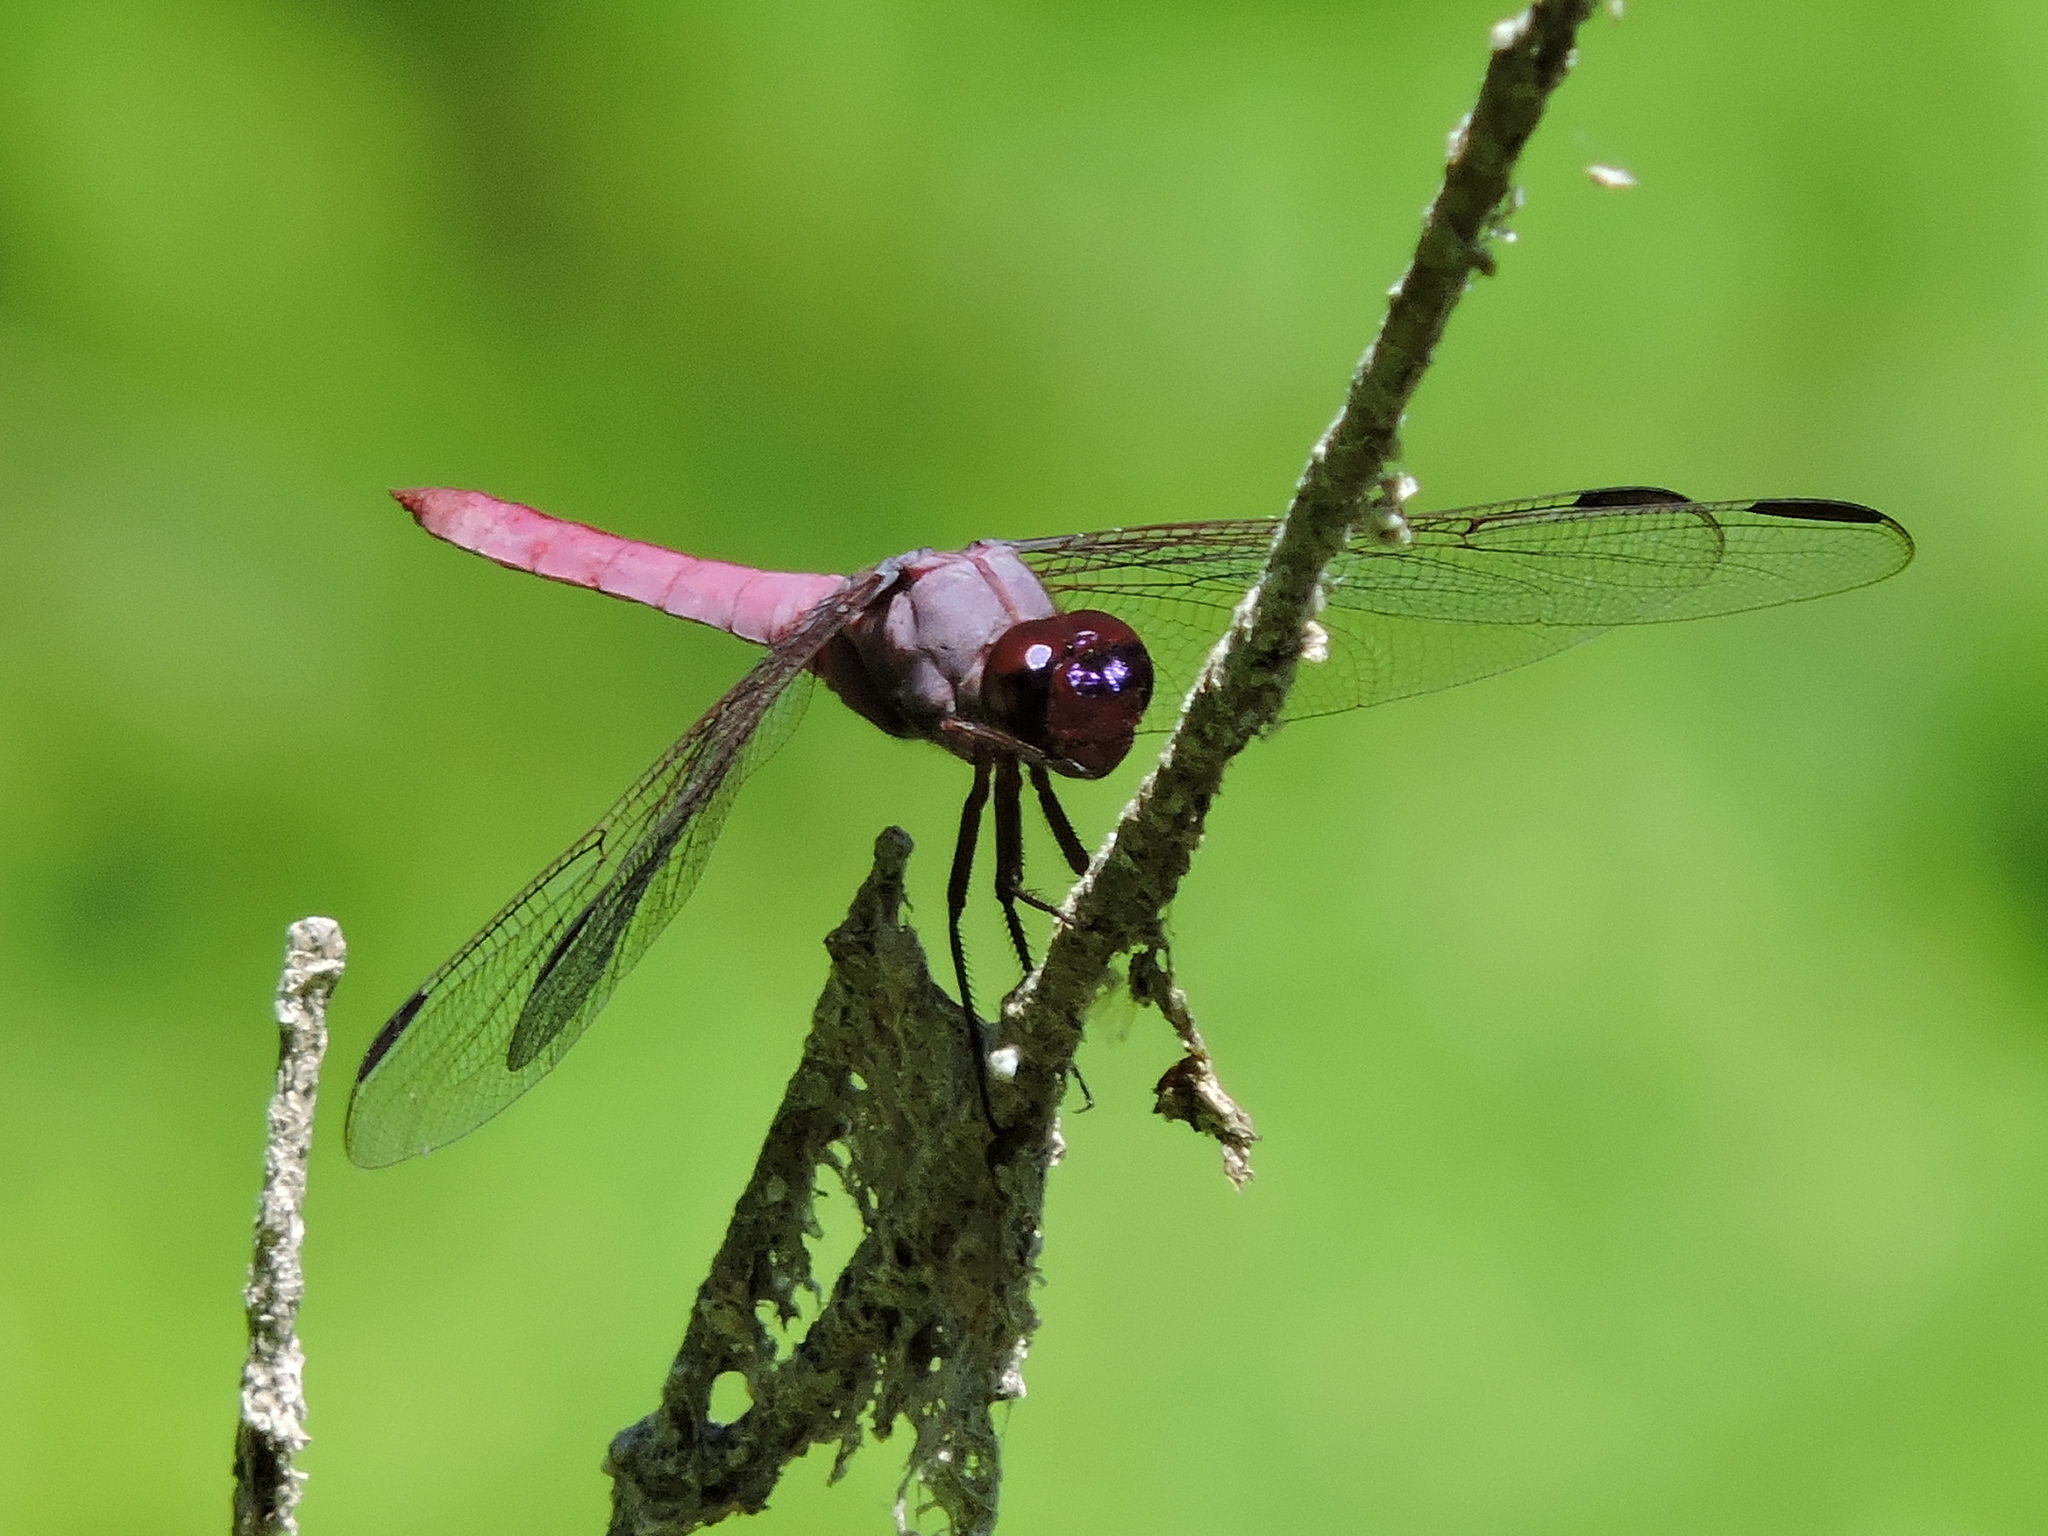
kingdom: Animalia
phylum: Arthropoda
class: Insecta
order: Odonata
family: Libellulidae
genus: Orthemis
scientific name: Orthemis ferruginea
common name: Roseate skimmer
